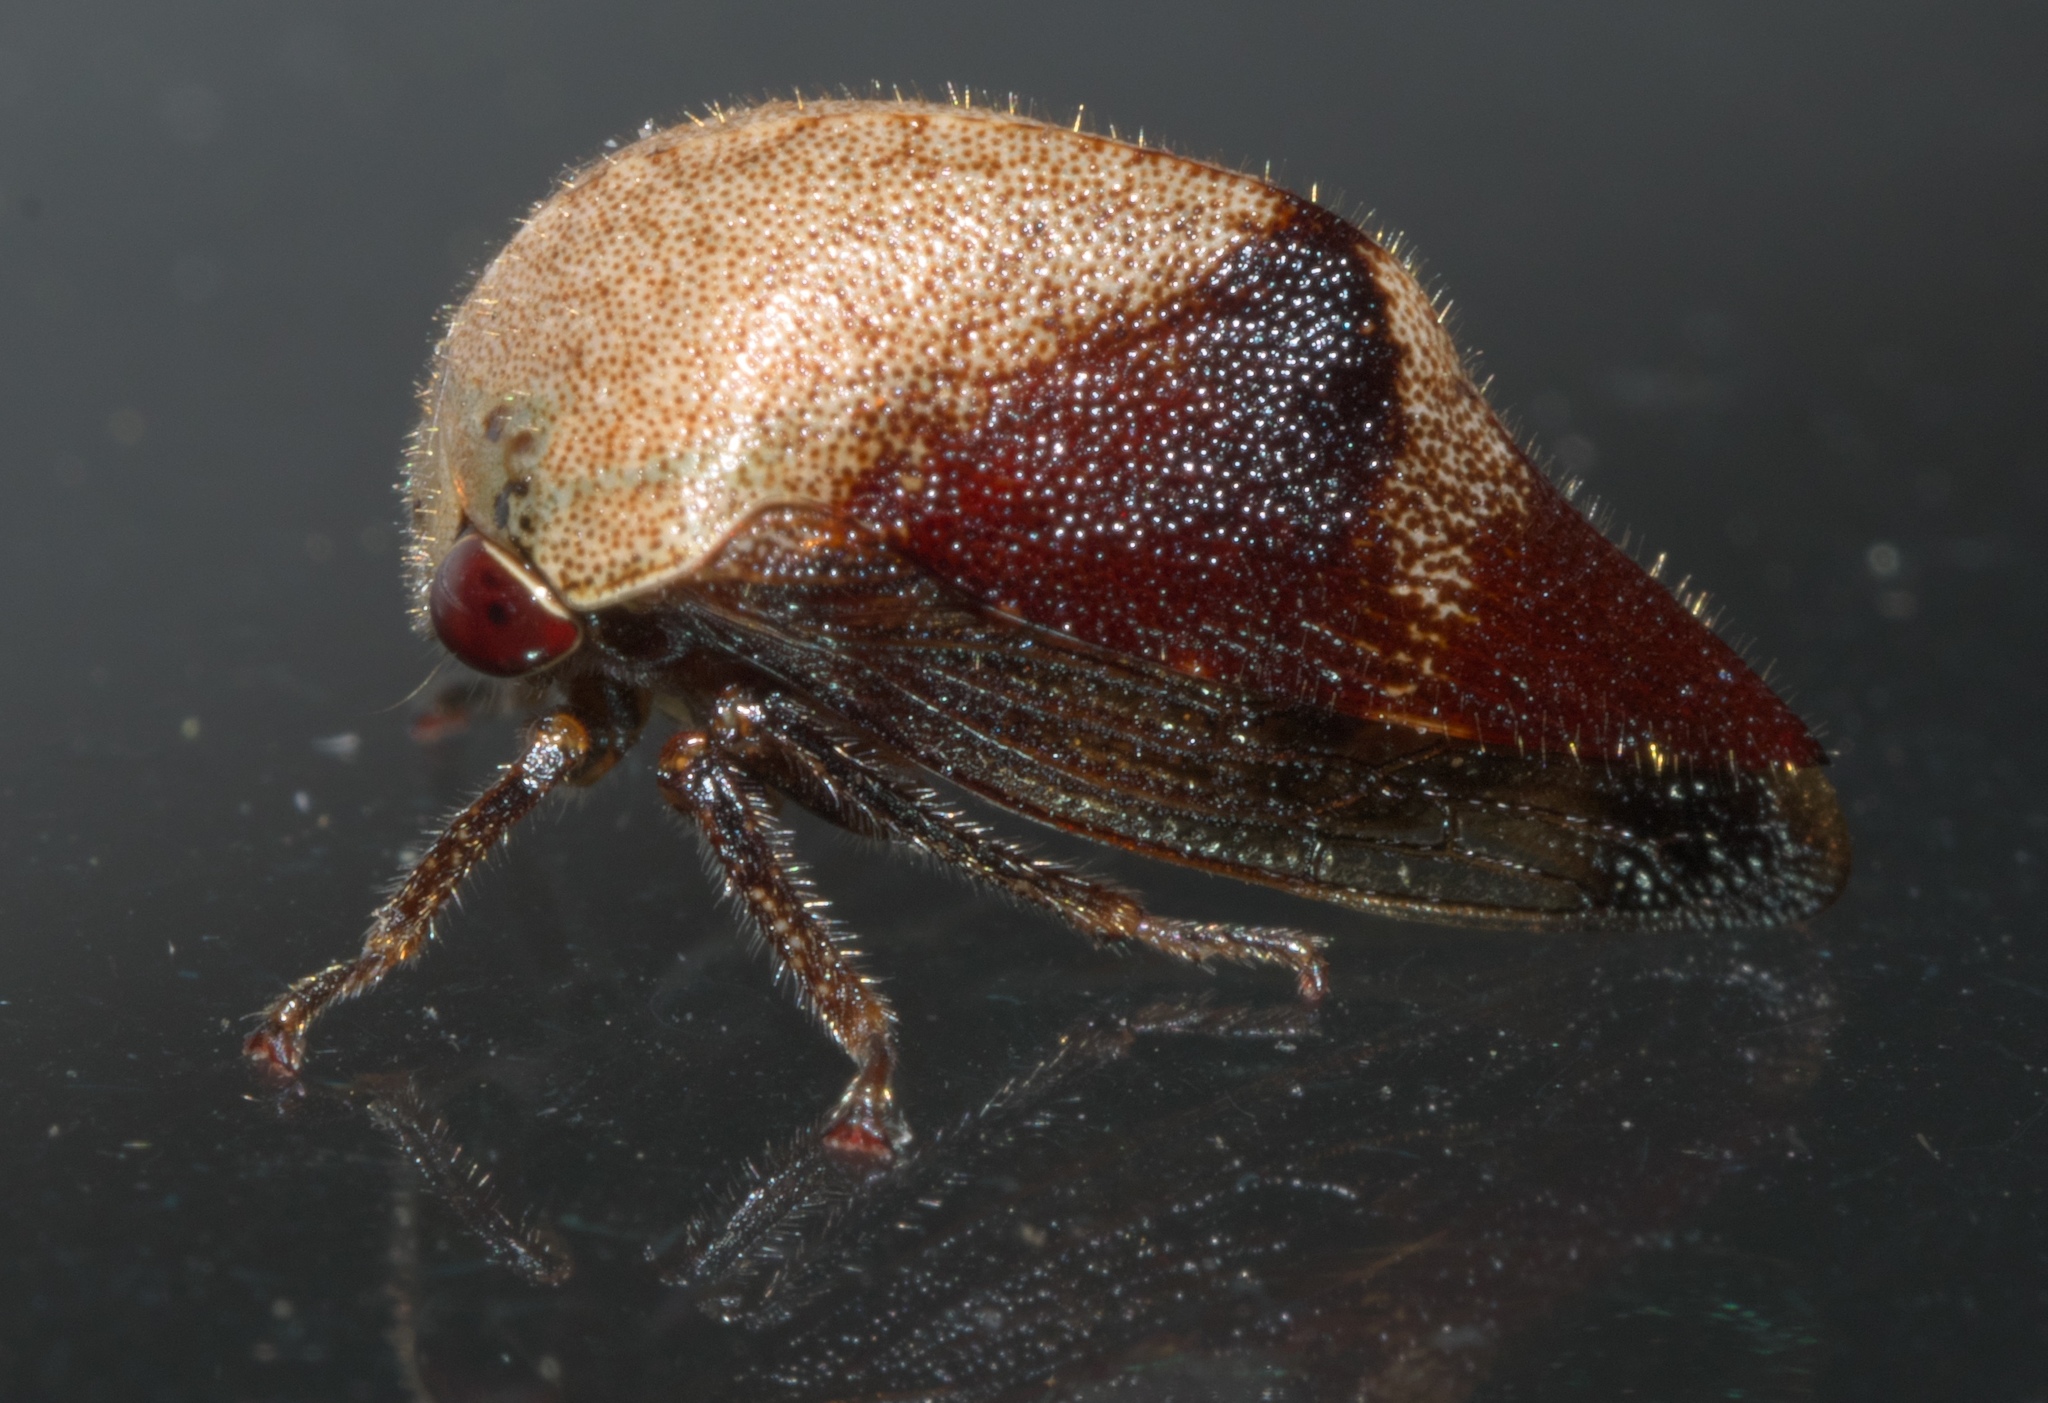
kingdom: Animalia
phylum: Arthropoda
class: Insecta
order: Hemiptera
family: Membracidae
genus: Carynota
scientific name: Carynota mera
